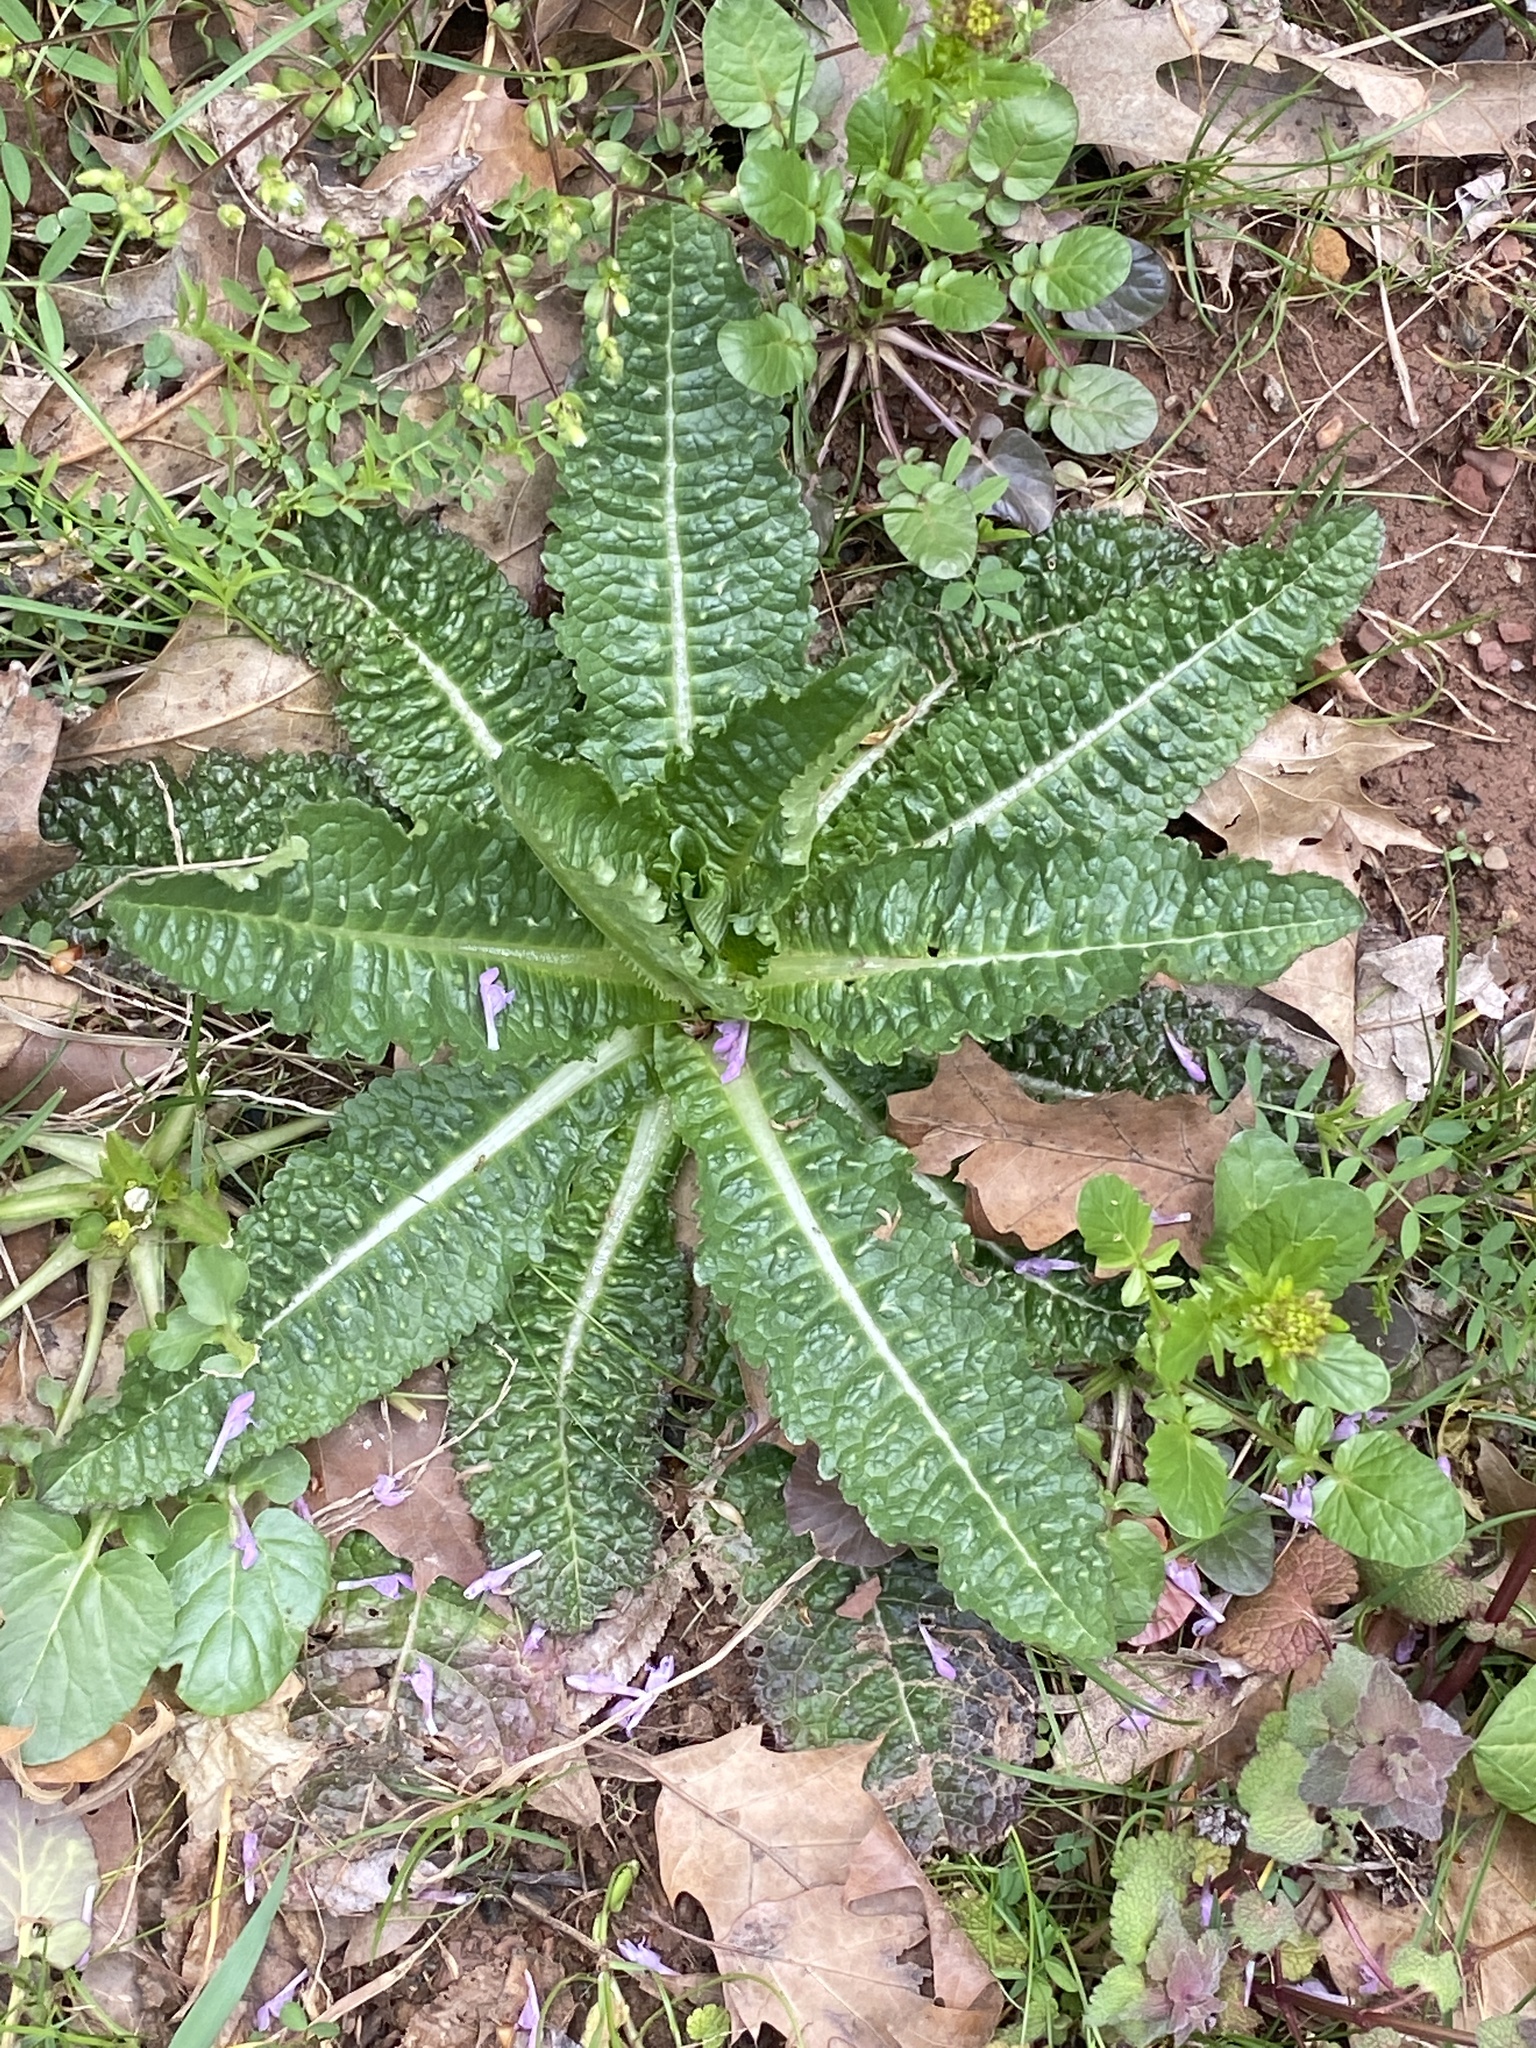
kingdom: Plantae
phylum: Tracheophyta
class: Magnoliopsida
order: Dipsacales
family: Caprifoliaceae
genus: Dipsacus
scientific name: Dipsacus fullonum
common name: Teasel
